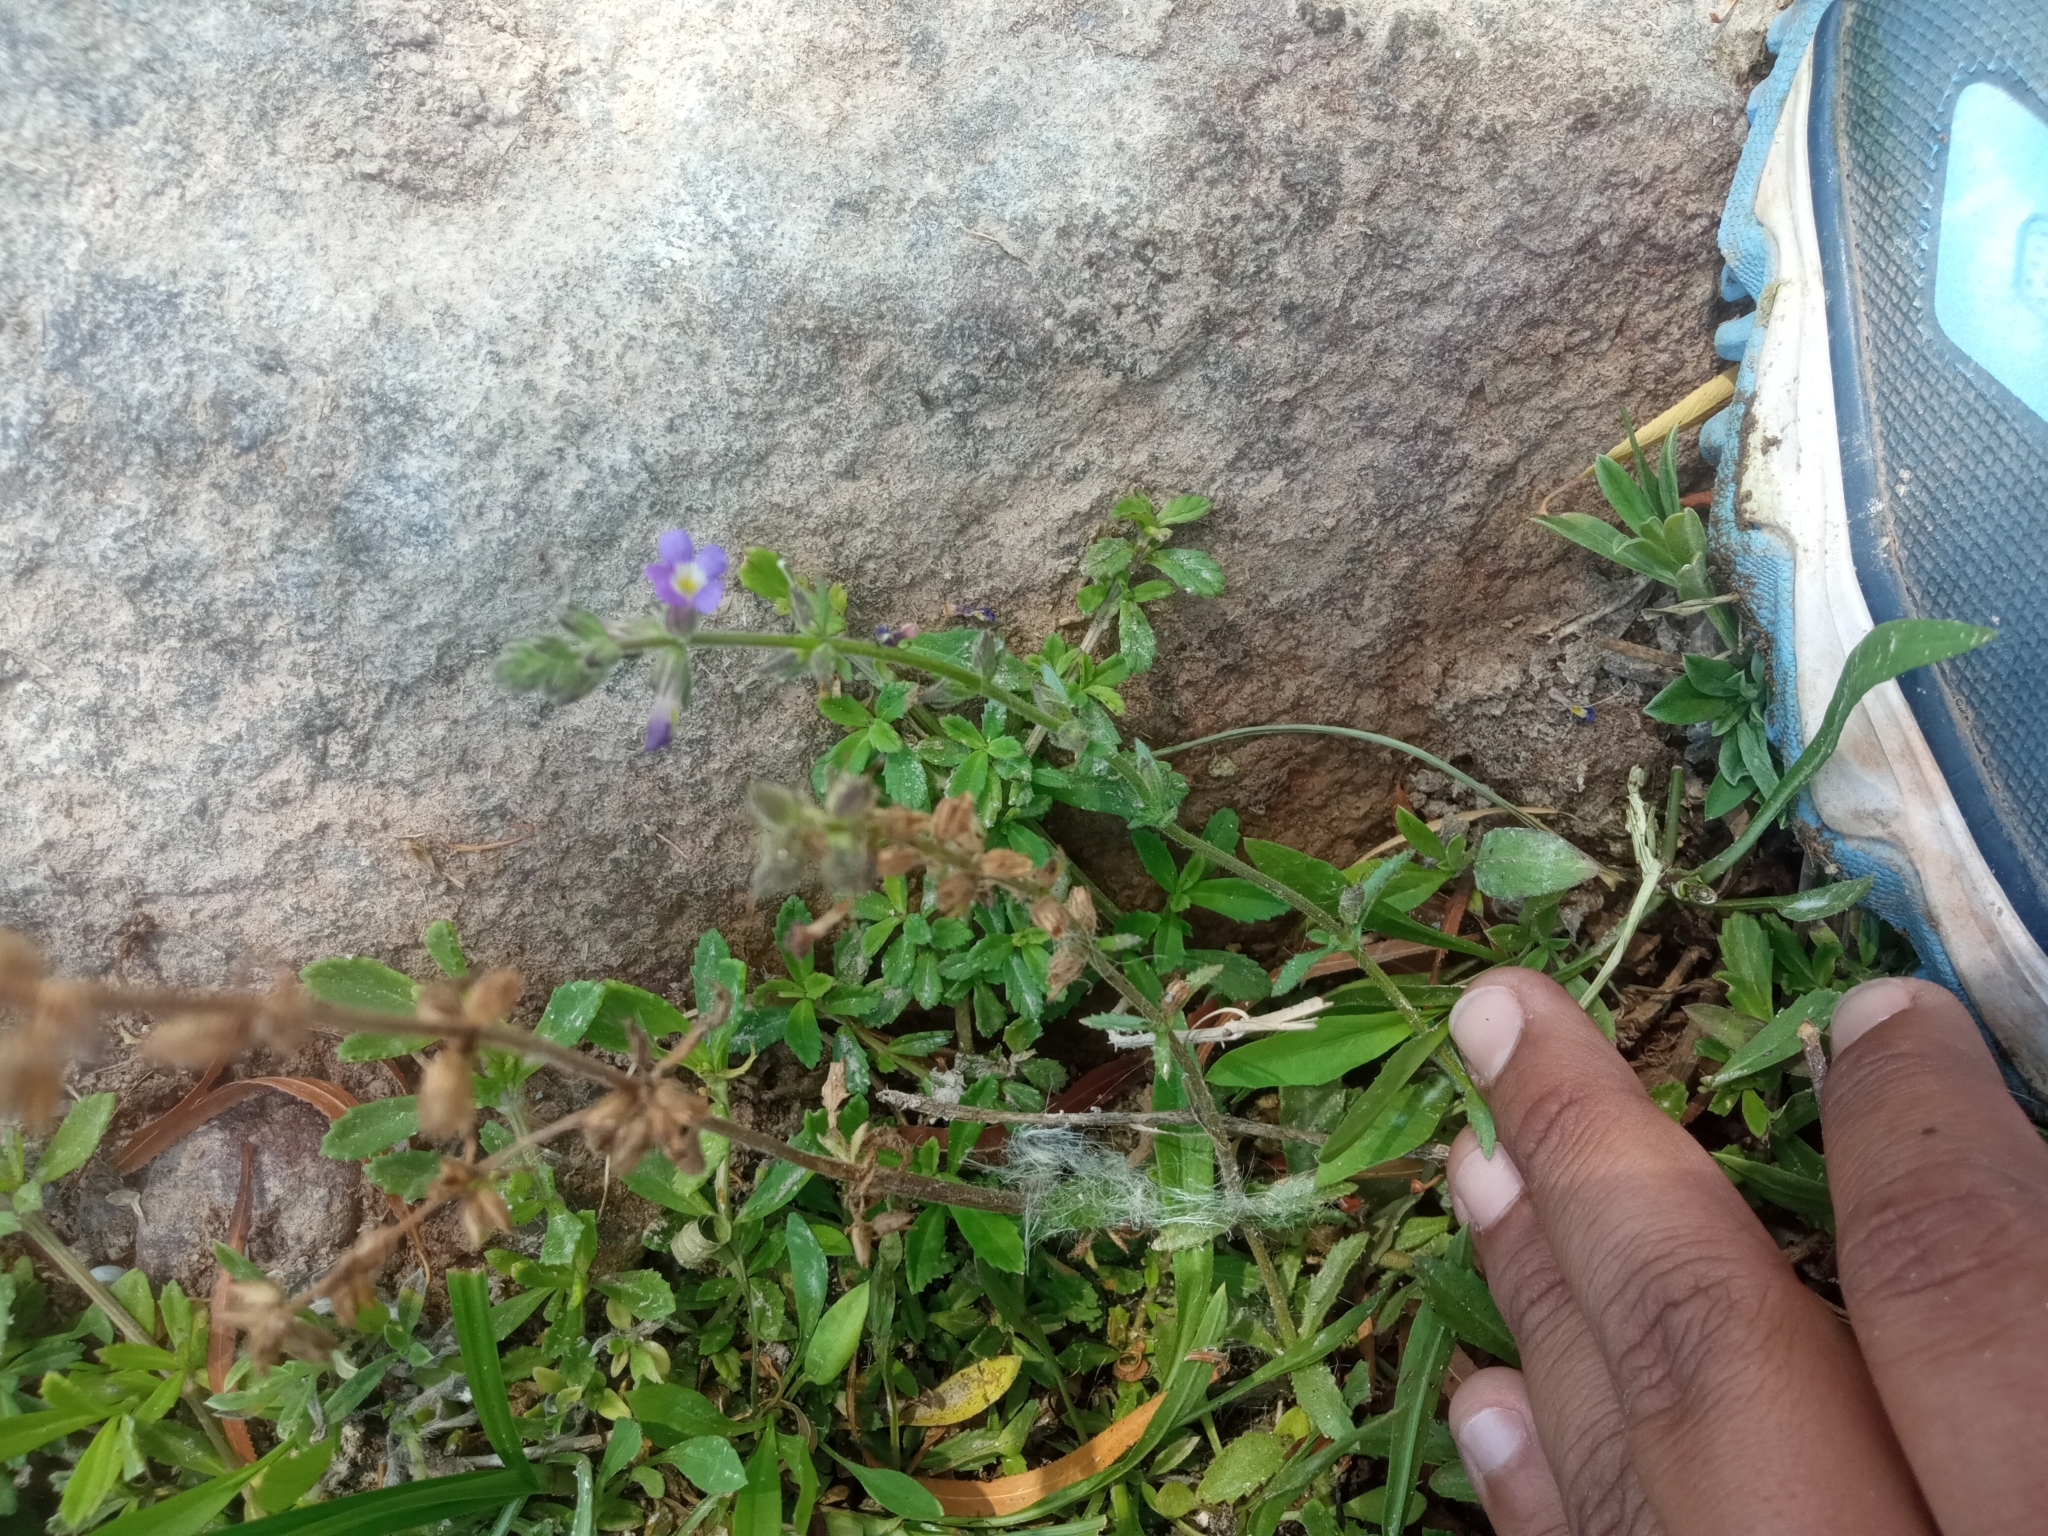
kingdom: Plantae
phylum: Tracheophyta
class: Magnoliopsida
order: Lamiales
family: Plantaginaceae
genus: Stemodia
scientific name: Stemodia durantifolia
